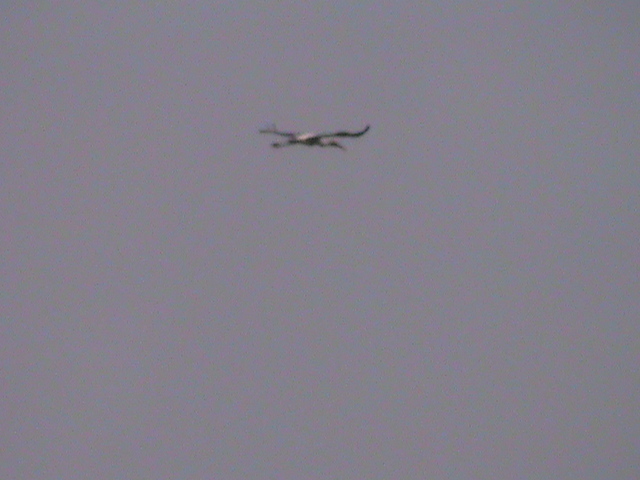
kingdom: Animalia
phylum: Chordata
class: Aves
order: Ciconiiformes
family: Ciconiidae
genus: Mycteria
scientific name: Mycteria leucocephala
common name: Painted stork
